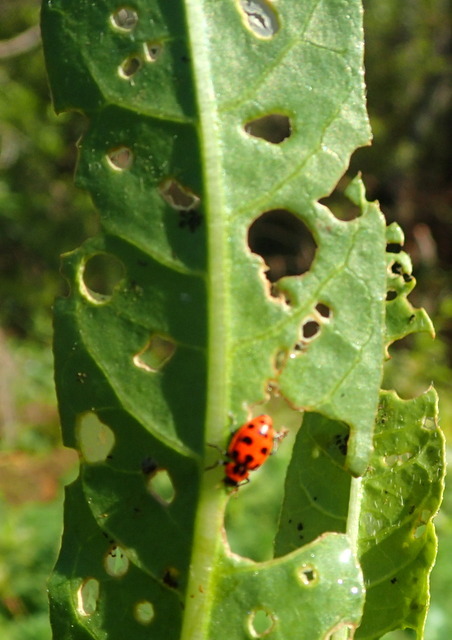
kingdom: Animalia
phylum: Arthropoda
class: Insecta
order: Coleoptera
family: Coccinellidae
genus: Coleomegilla
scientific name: Coleomegilla maculata
